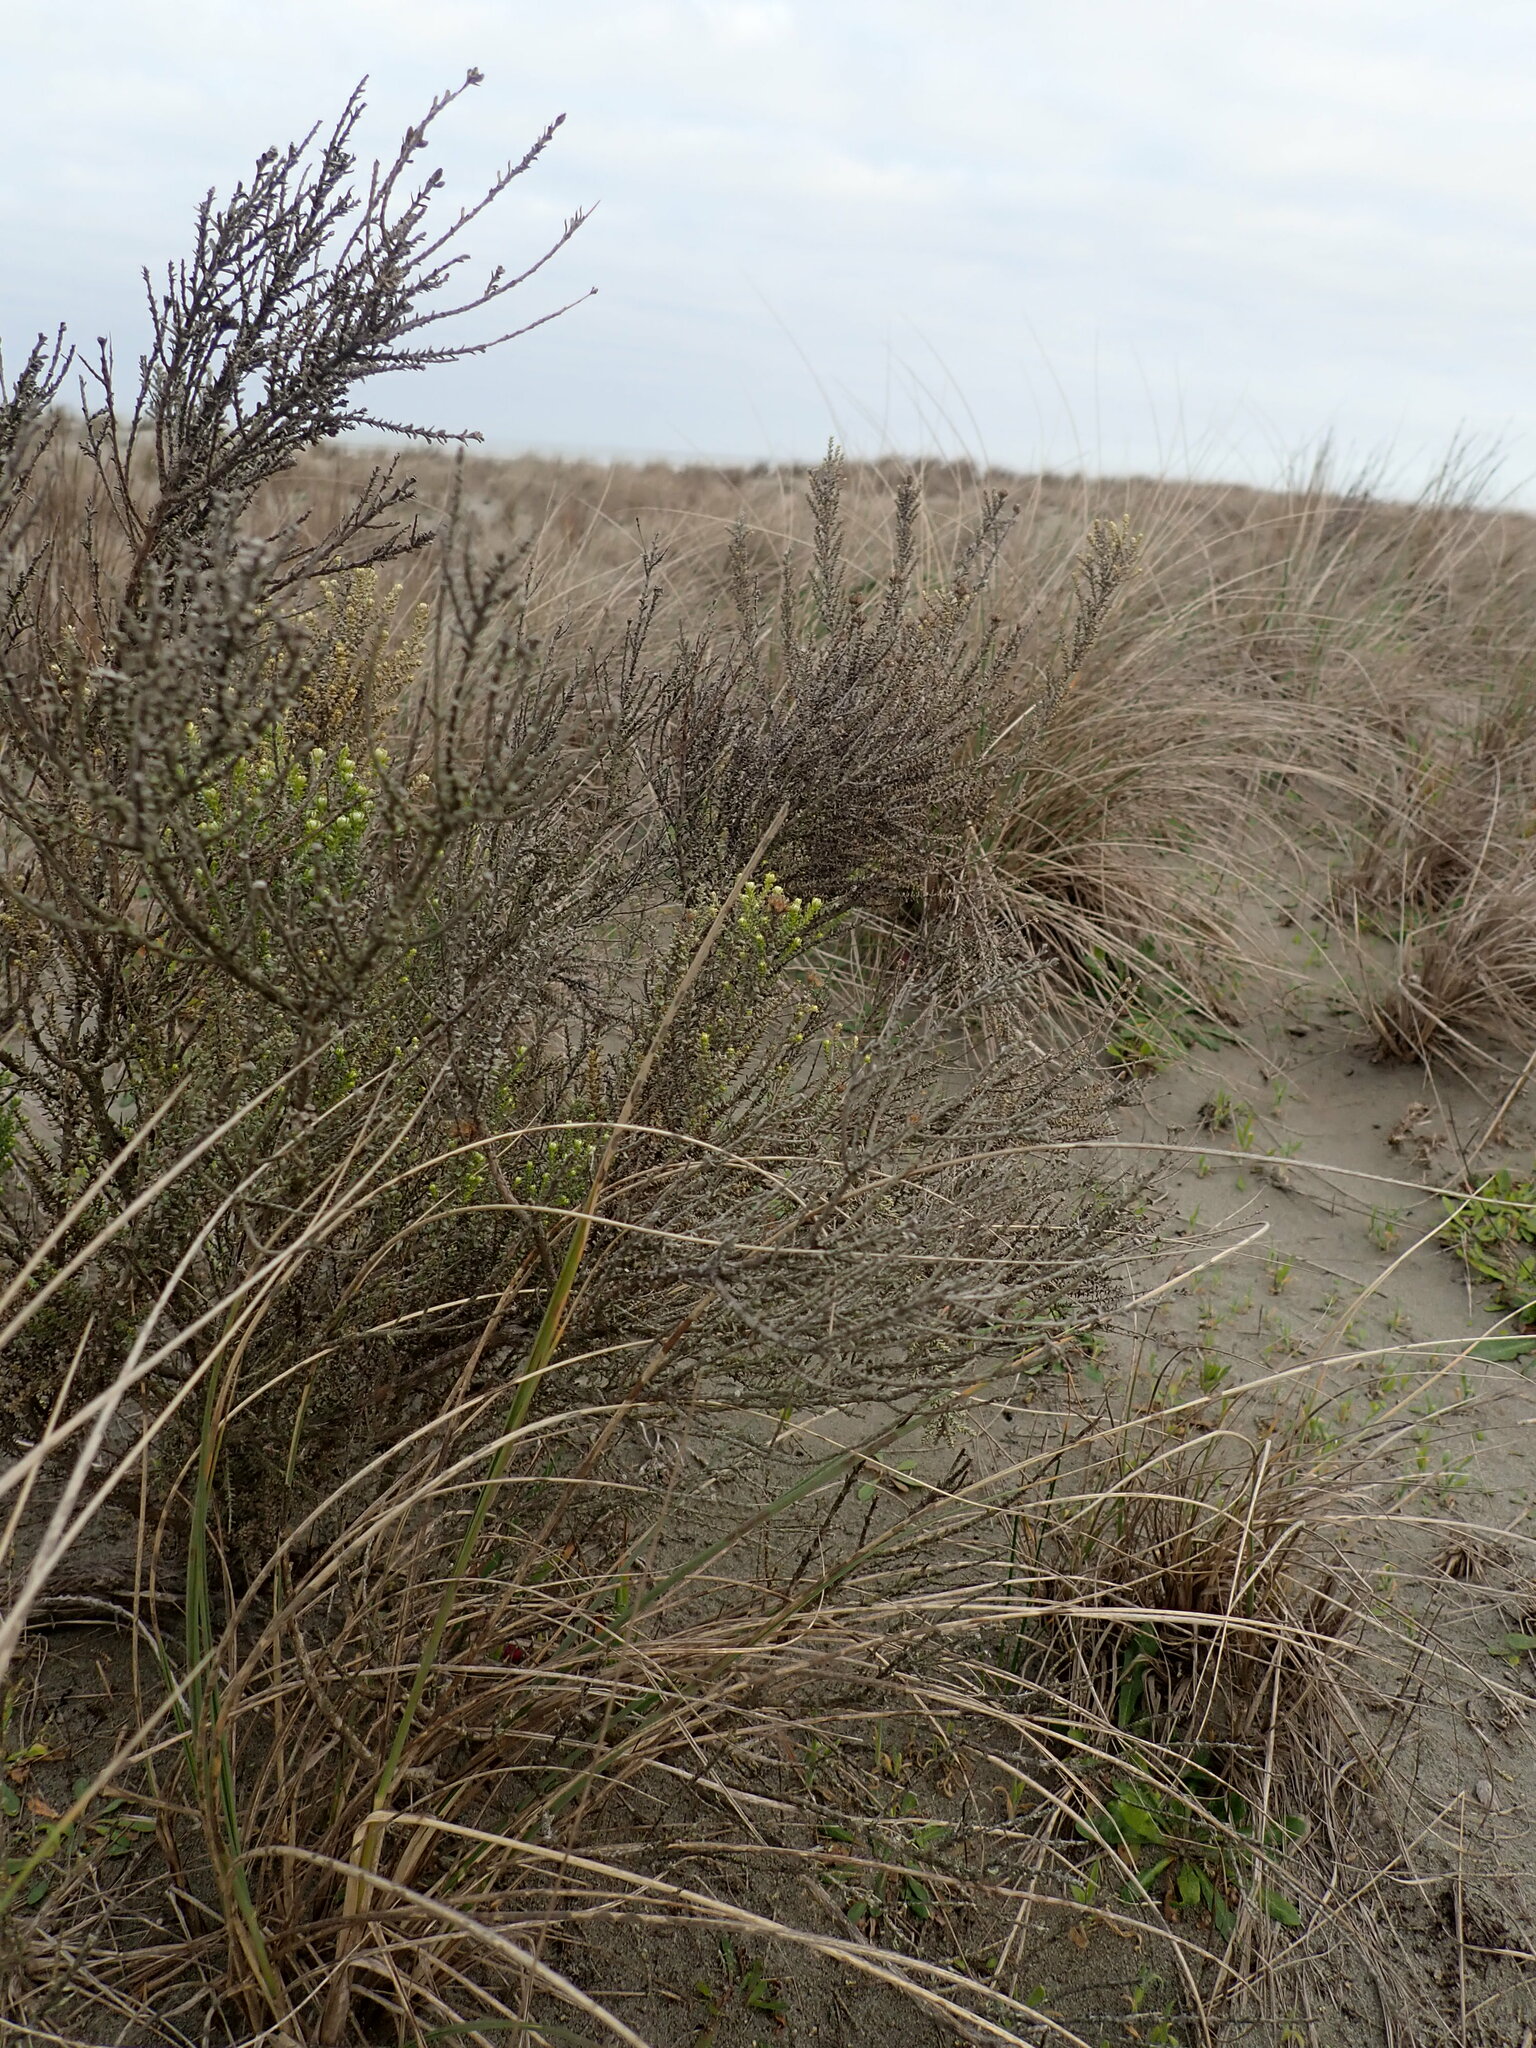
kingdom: Plantae
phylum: Tracheophyta
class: Magnoliopsida
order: Asterales
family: Asteraceae
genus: Ozothamnus
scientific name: Ozothamnus leptophyllus
